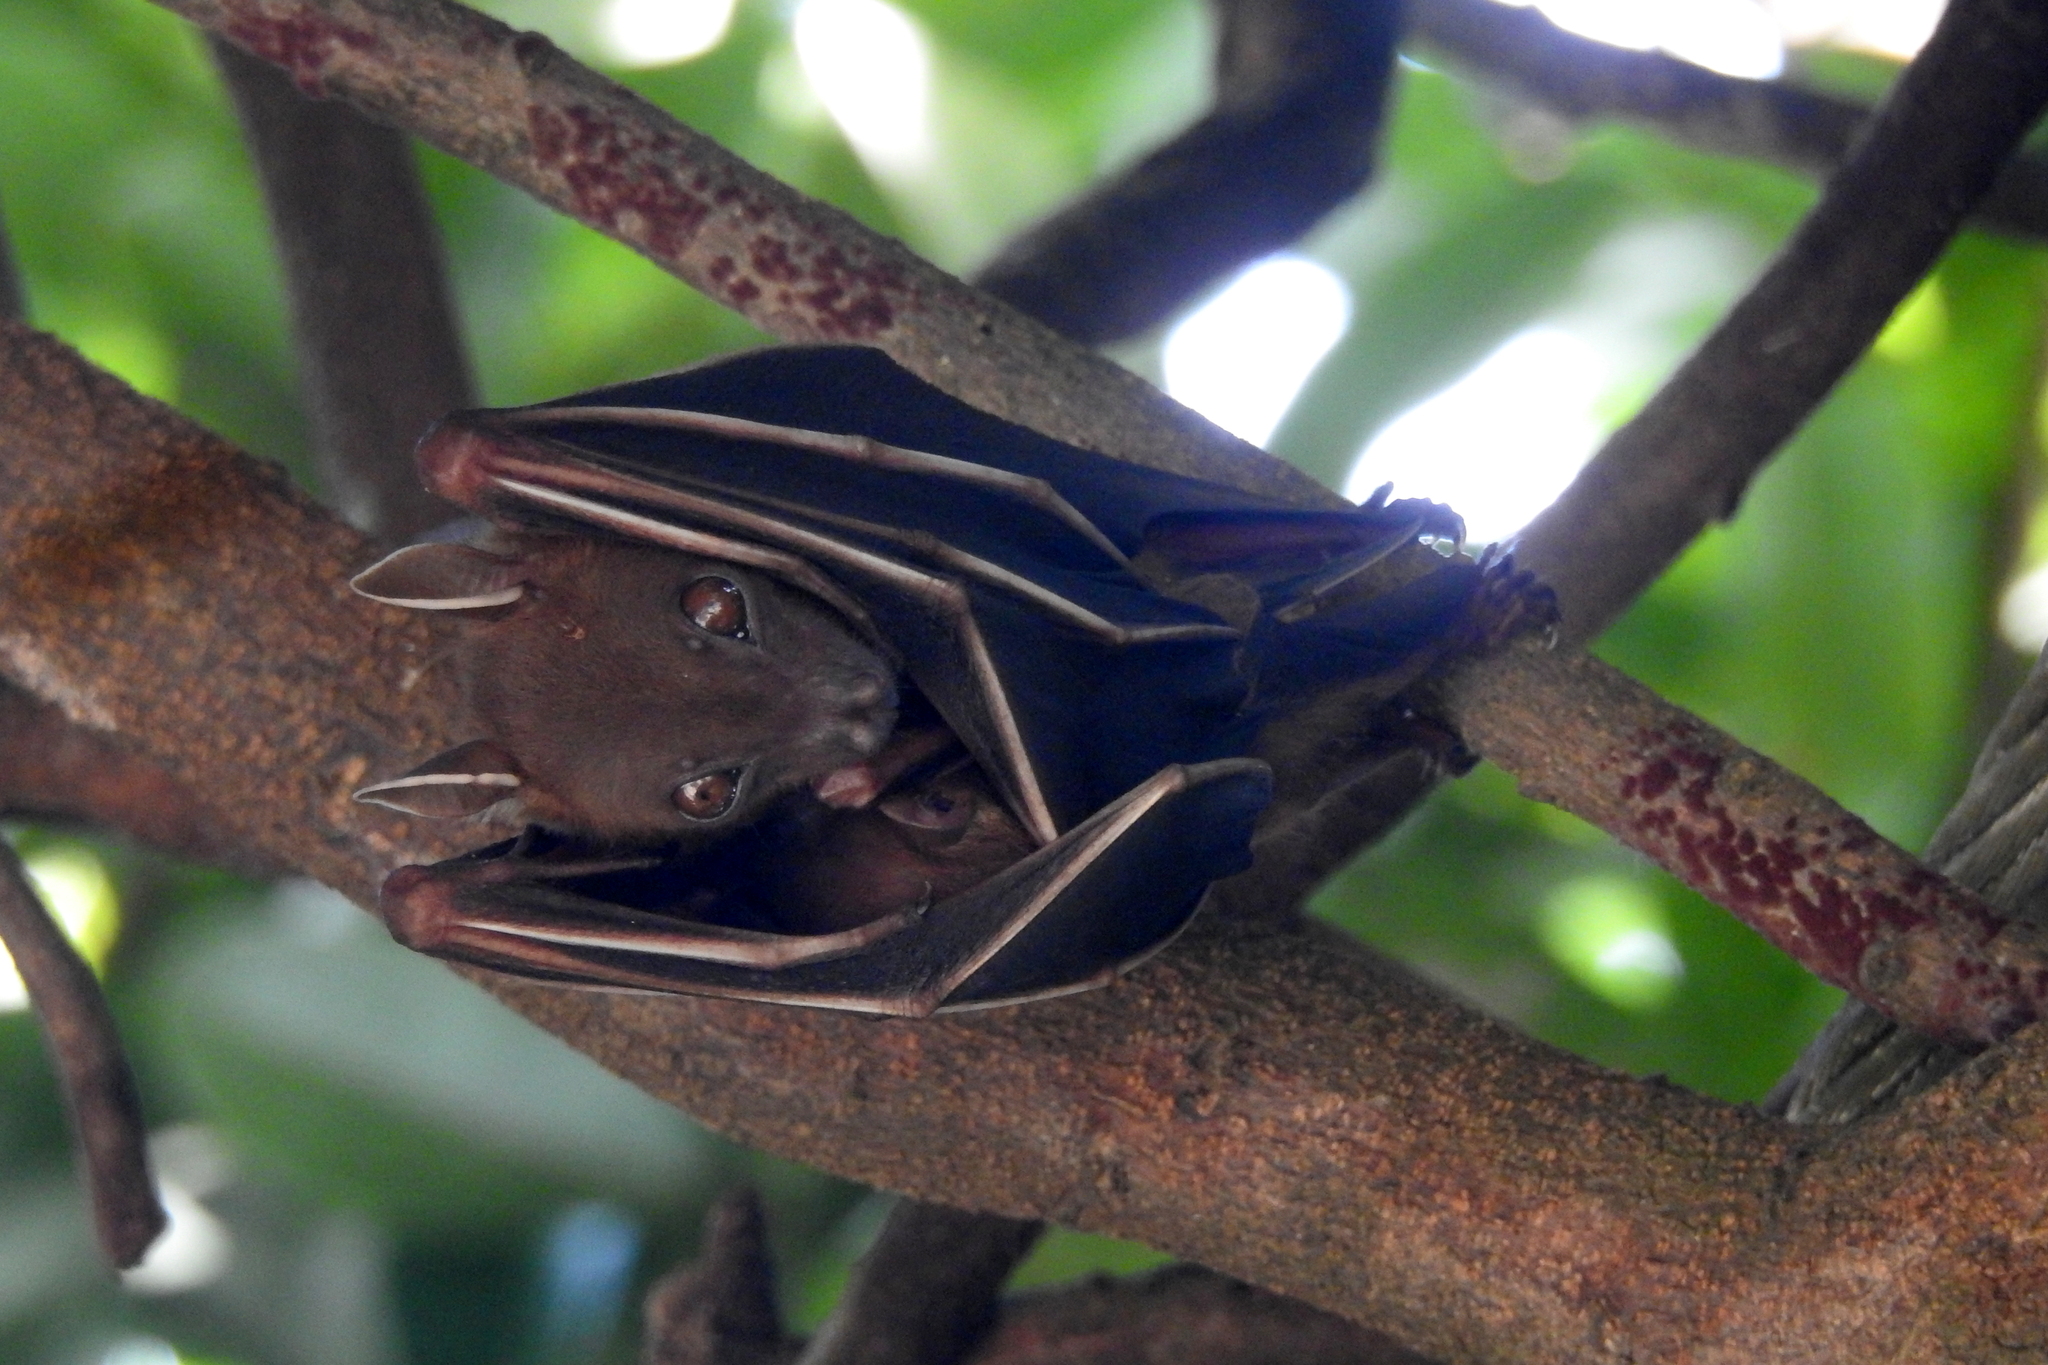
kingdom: Animalia
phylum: Chordata
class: Mammalia
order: Chiroptera
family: Pteropodidae
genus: Cynopterus
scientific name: Cynopterus brachyotis
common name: Lesser short-nosed fruit bat
